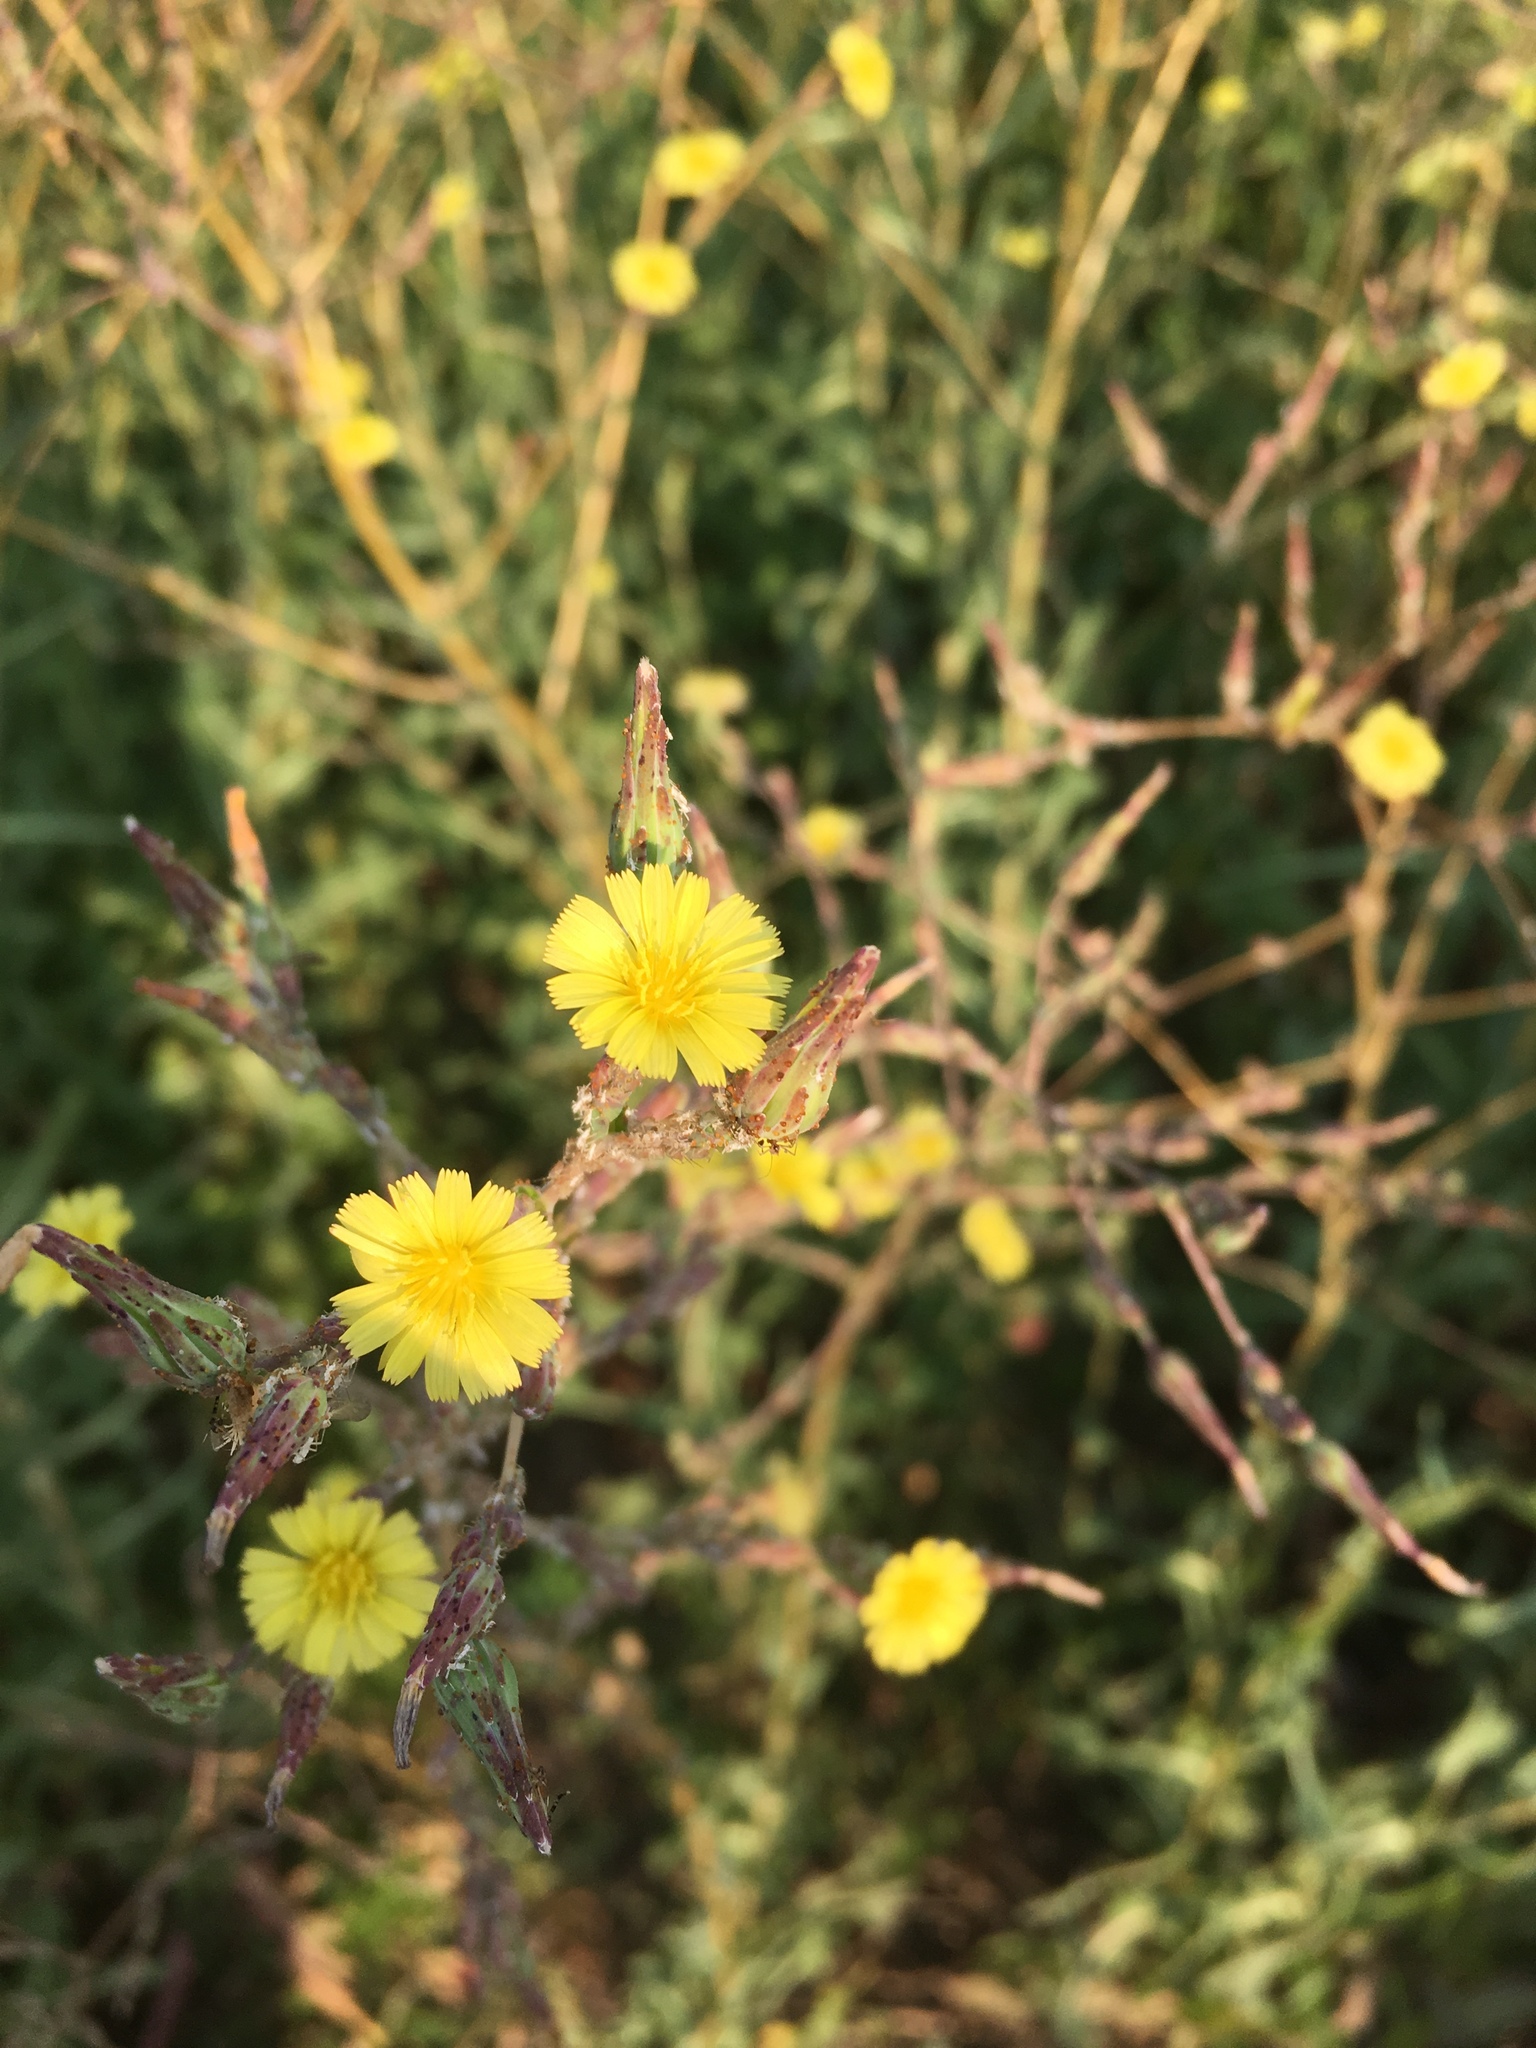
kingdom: Plantae
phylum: Tracheophyta
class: Magnoliopsida
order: Asterales
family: Asteraceae
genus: Lactuca
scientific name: Lactuca serriola
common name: Prickly lettuce
